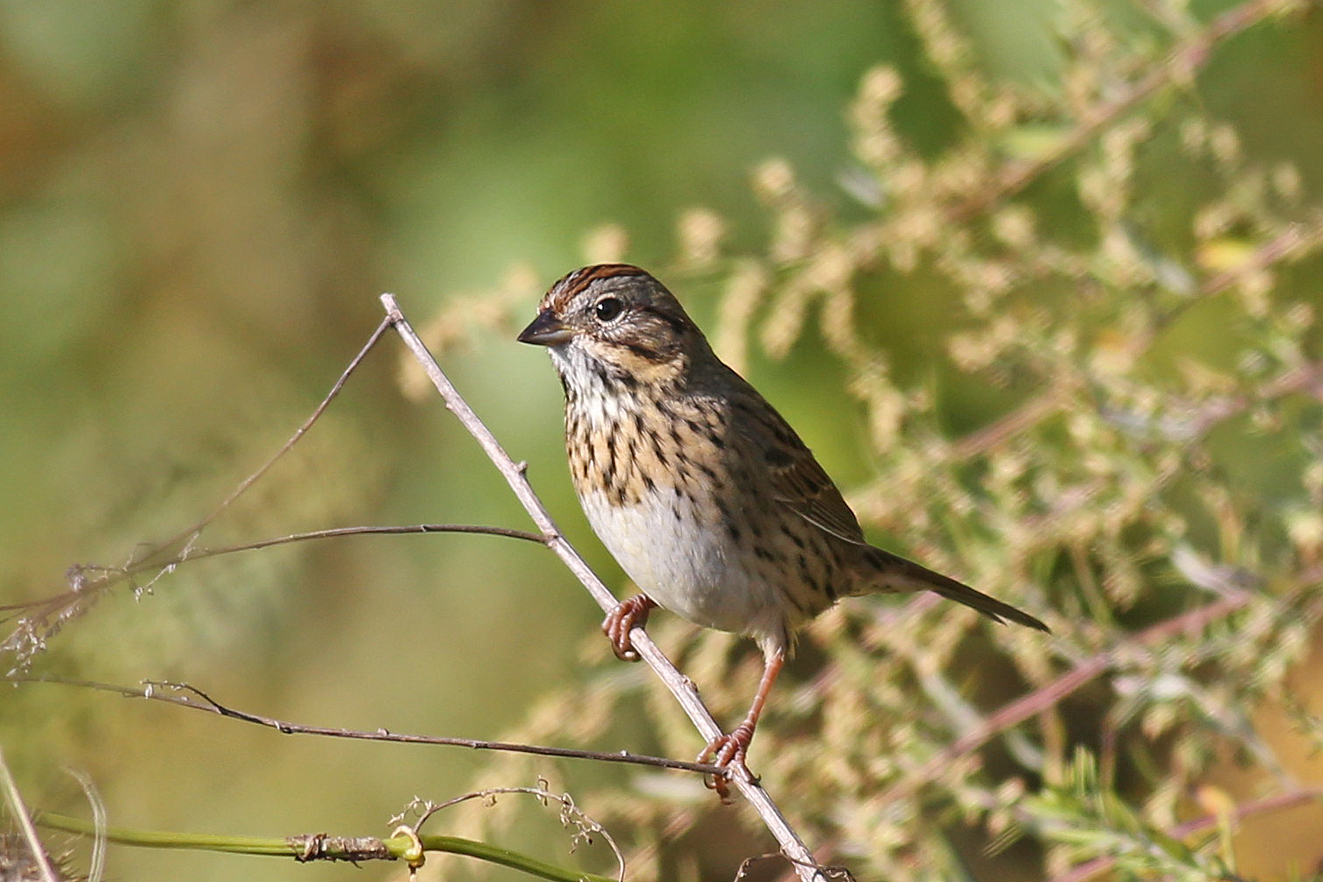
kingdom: Animalia
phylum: Chordata
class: Aves
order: Passeriformes
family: Passerellidae
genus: Melospiza
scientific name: Melospiza lincolnii
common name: Lincoln's sparrow
